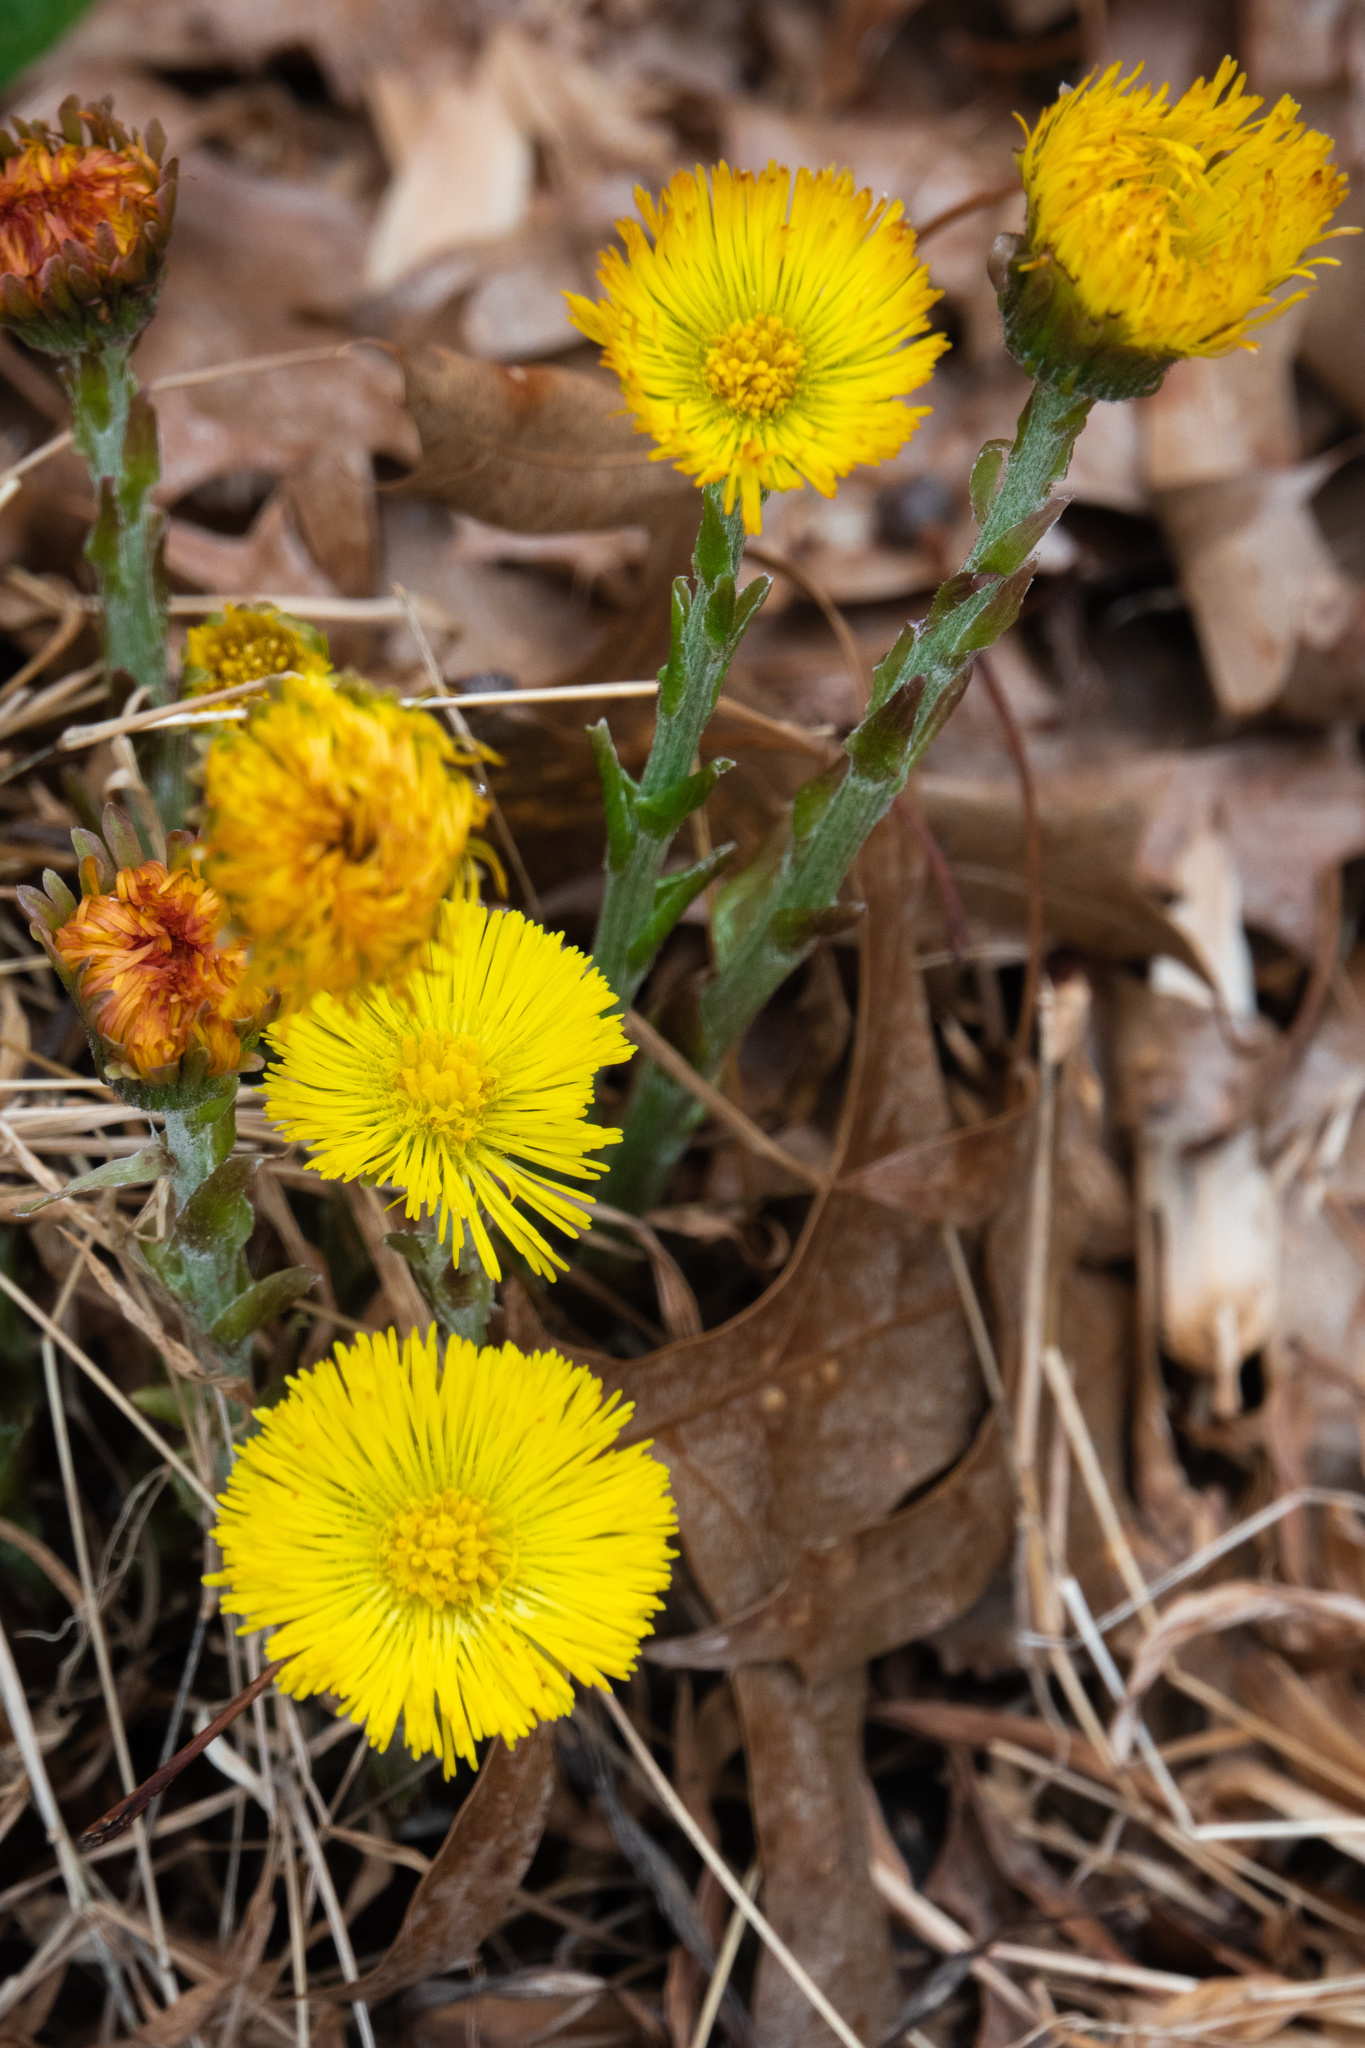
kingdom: Plantae
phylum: Tracheophyta
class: Magnoliopsida
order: Asterales
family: Asteraceae
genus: Tussilago
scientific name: Tussilago farfara
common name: Coltsfoot
